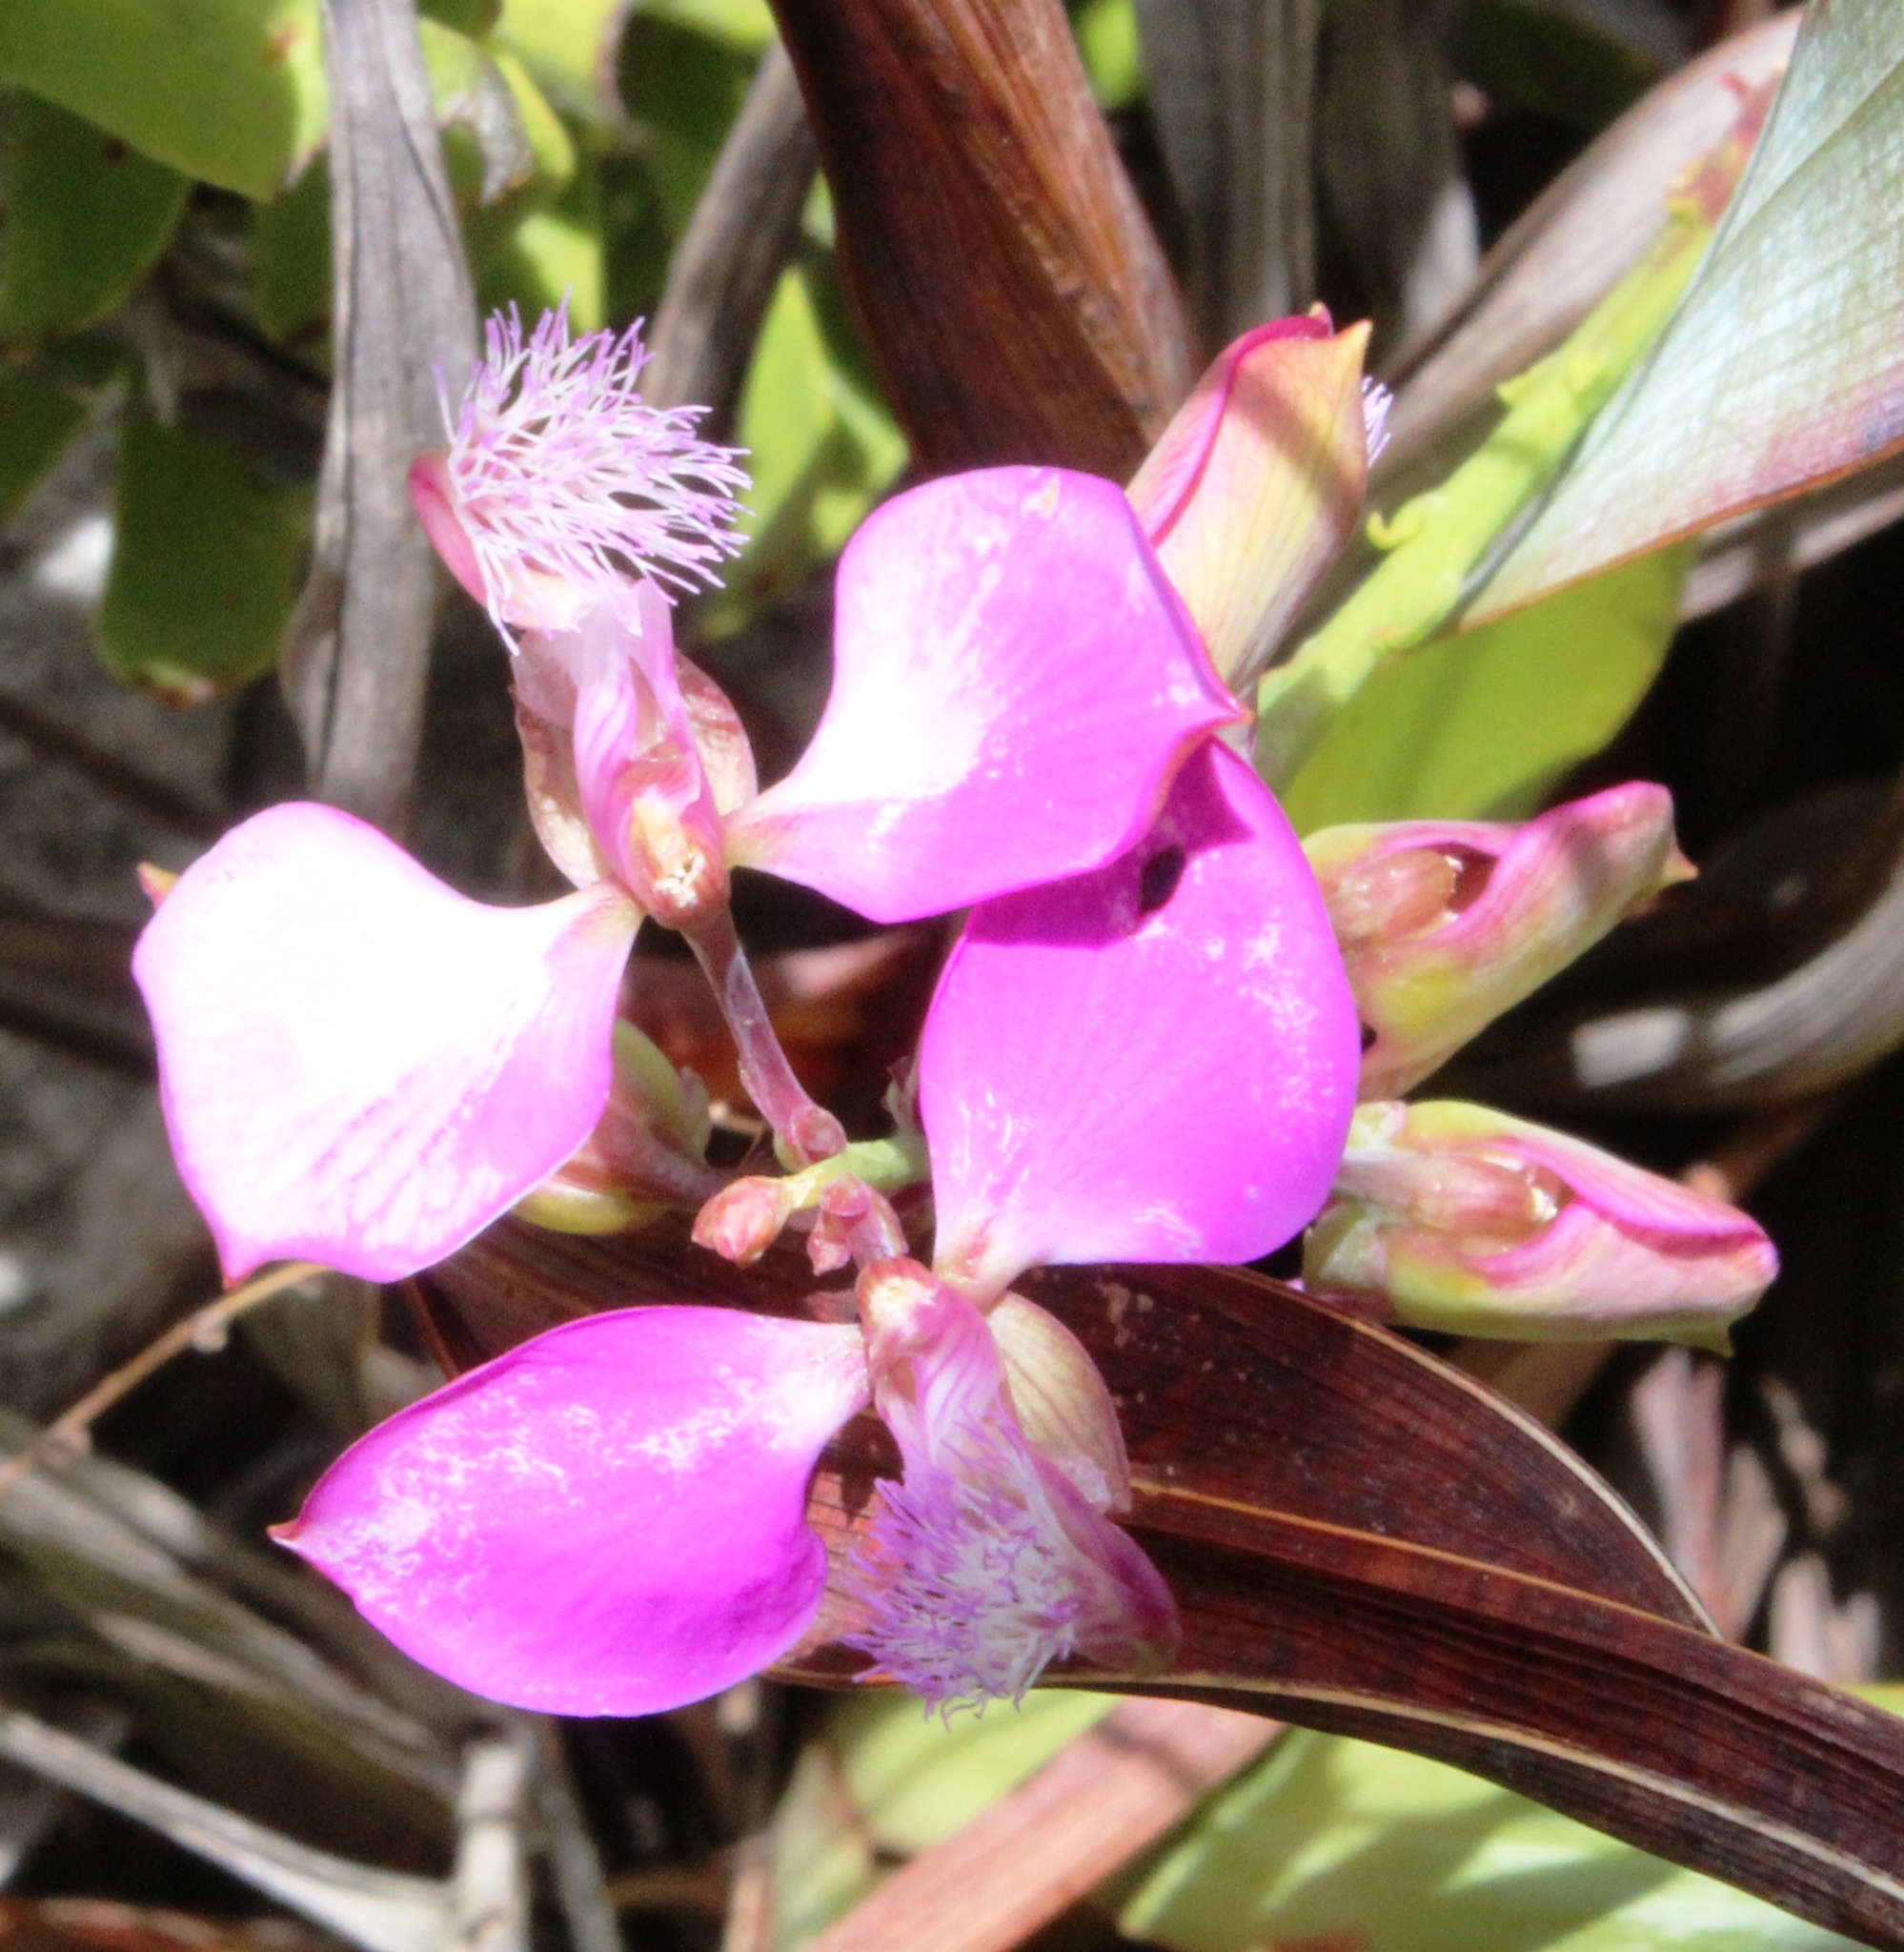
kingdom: Plantae
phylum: Tracheophyta
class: Magnoliopsida
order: Fabales
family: Polygalaceae
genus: Polygala
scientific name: Polygala bracteolata
